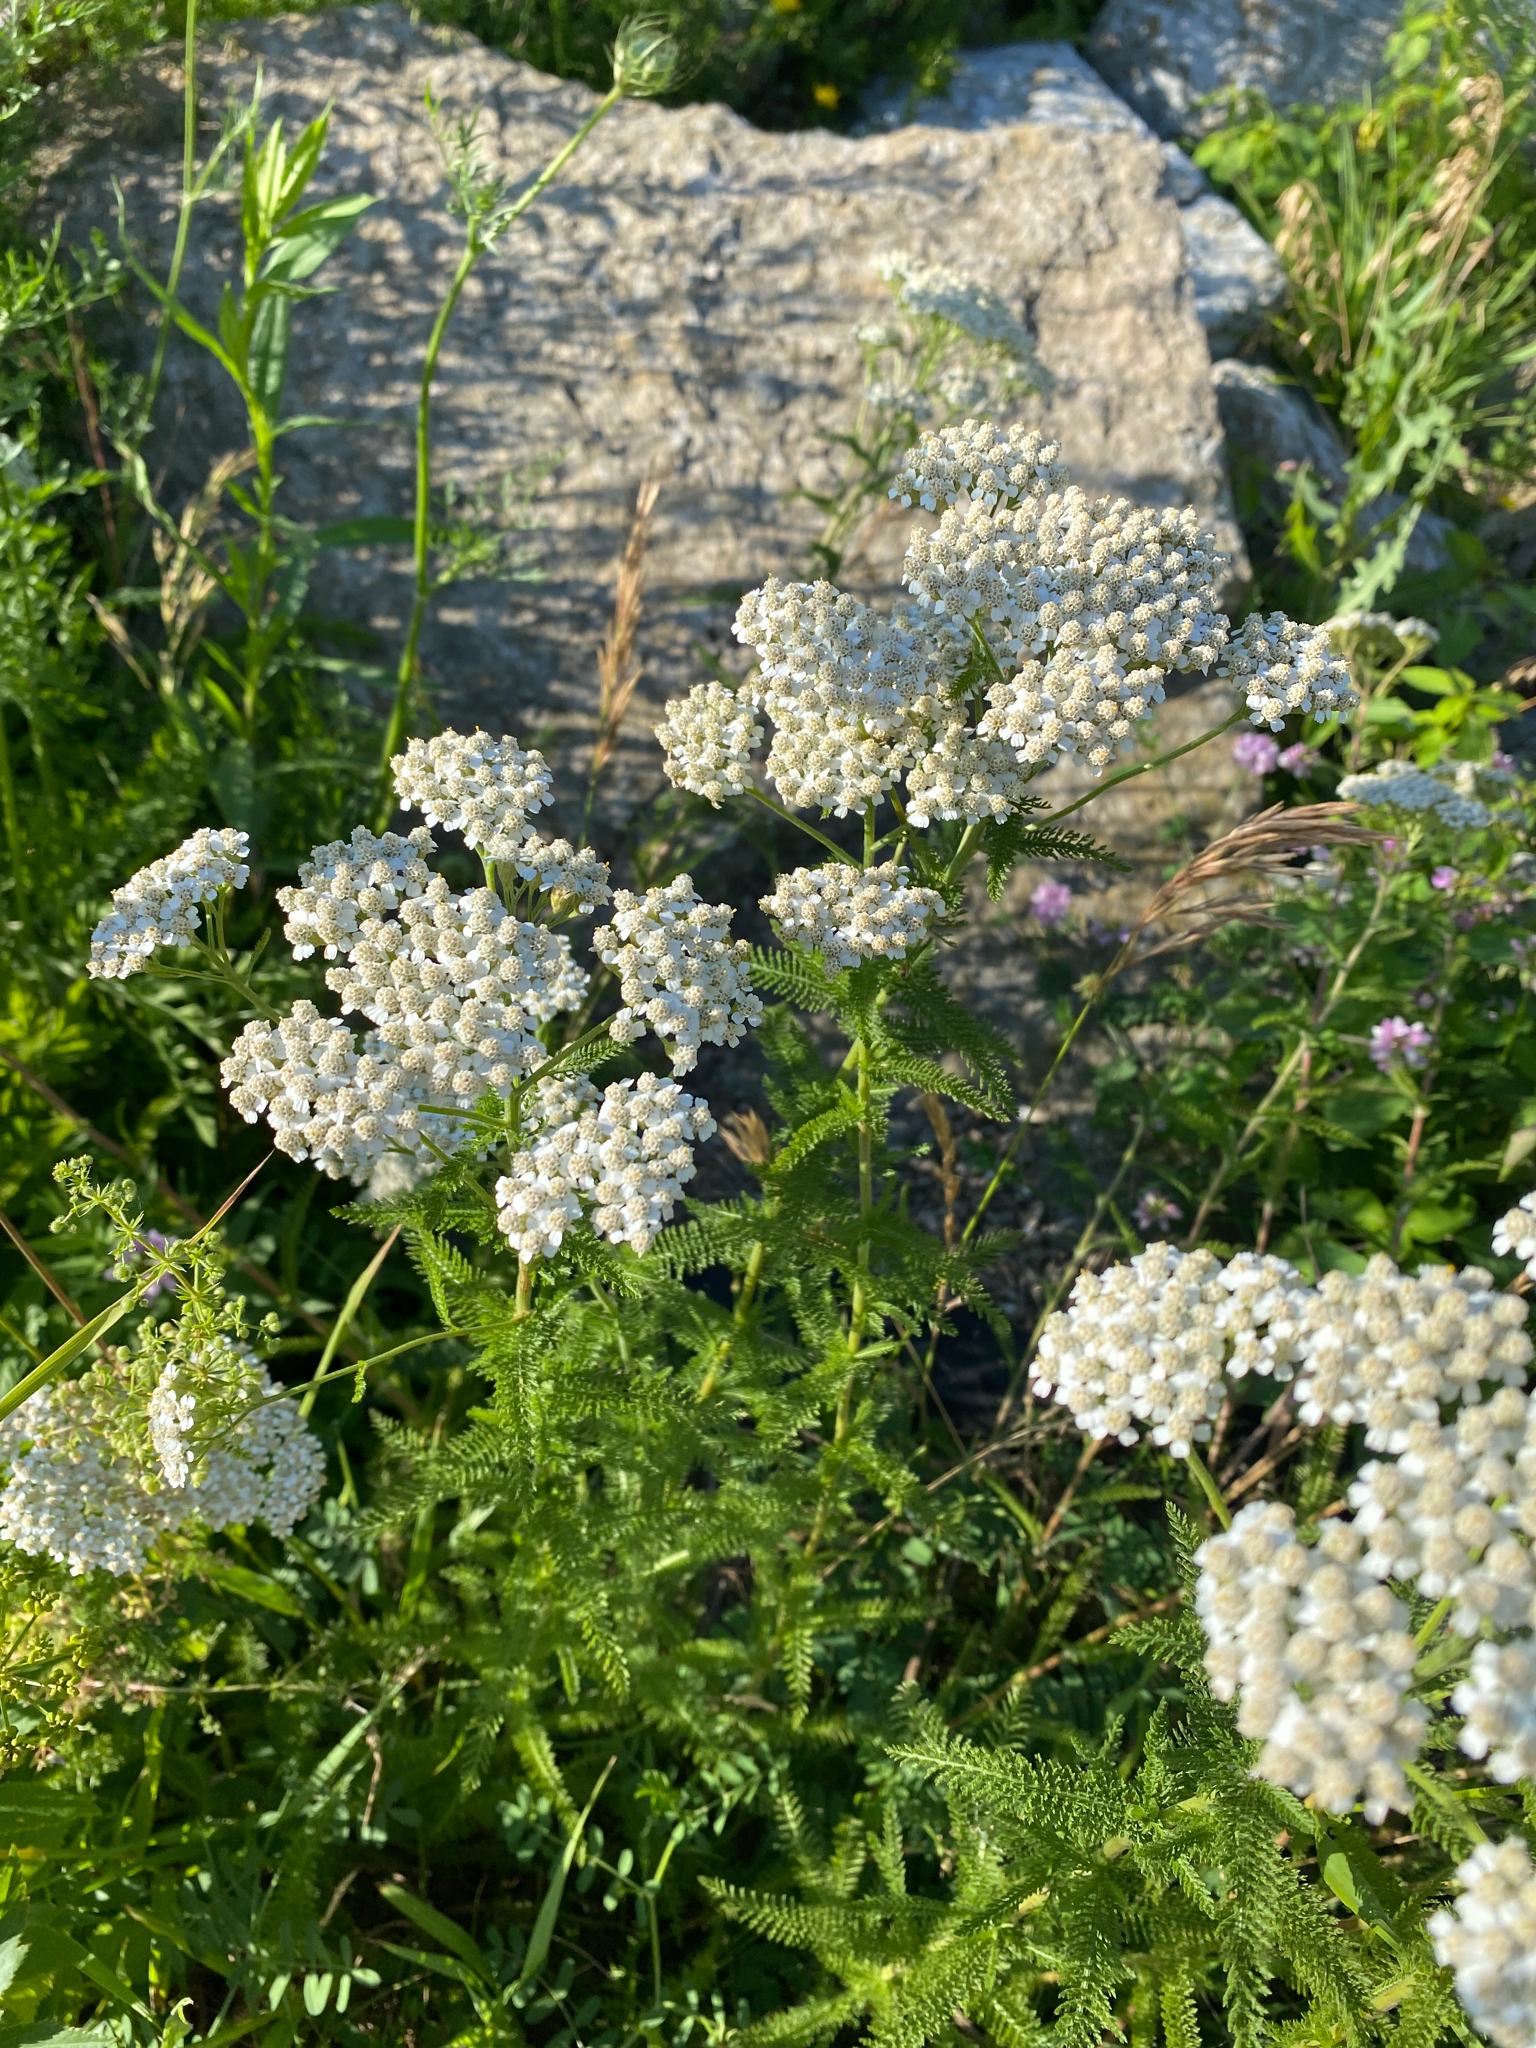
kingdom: Plantae
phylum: Tracheophyta
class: Magnoliopsida
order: Asterales
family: Asteraceae
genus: Achillea
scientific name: Achillea millefolium
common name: Yarrow
